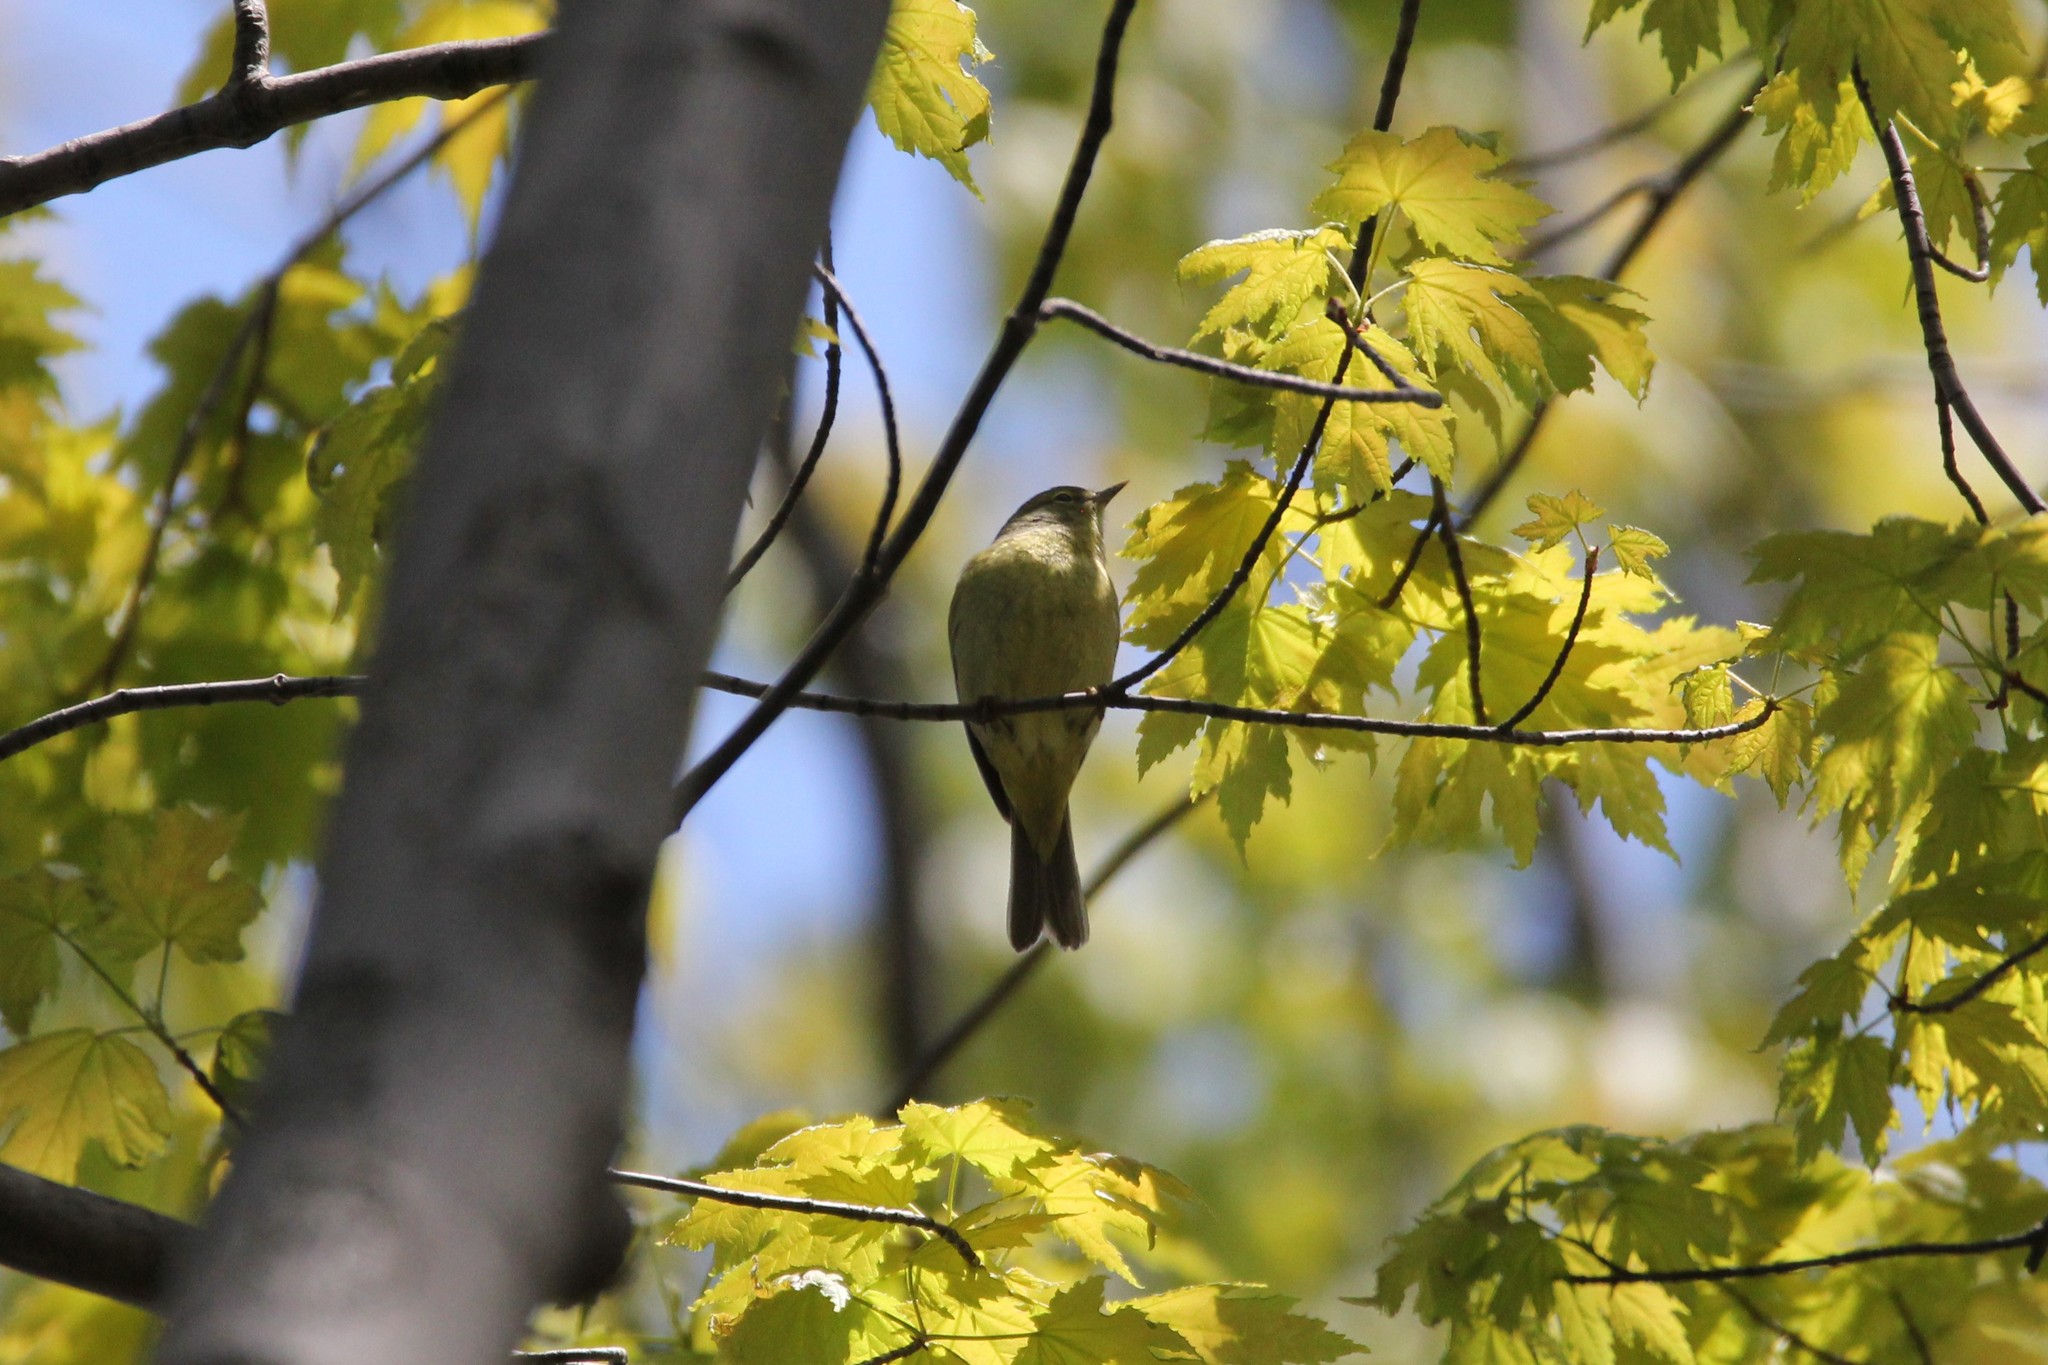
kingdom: Animalia
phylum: Chordata
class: Aves
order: Passeriformes
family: Parulidae
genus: Leiothlypis
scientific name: Leiothlypis celata
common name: Orange-crowned warbler
